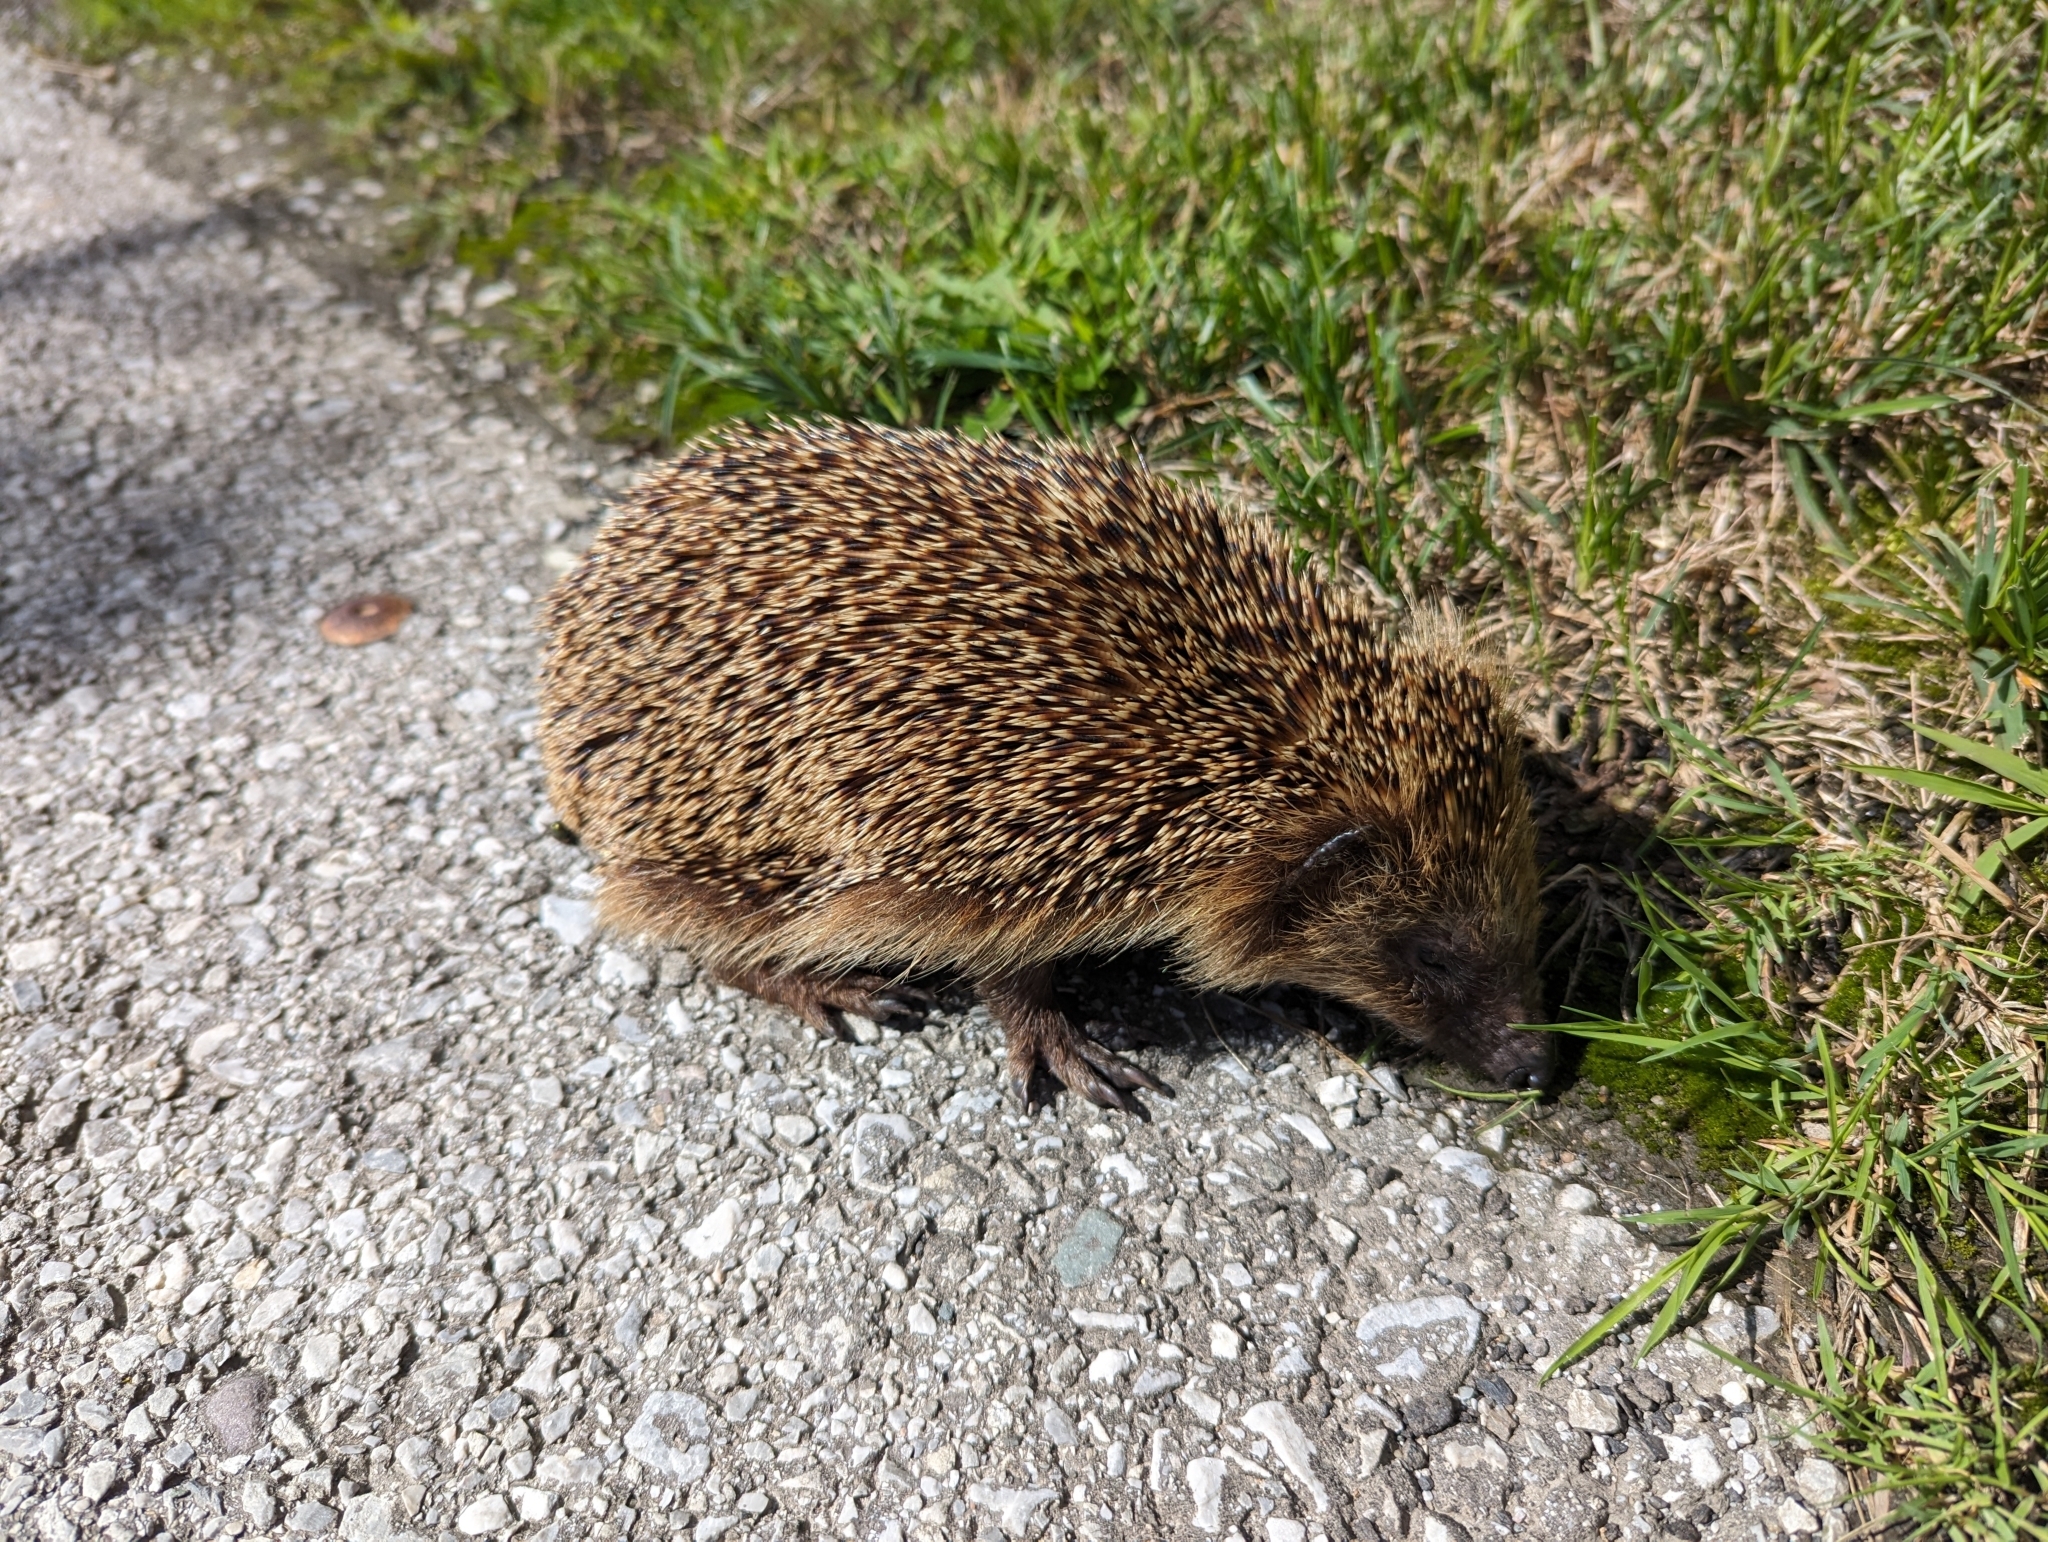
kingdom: Animalia
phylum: Chordata
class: Mammalia
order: Erinaceomorpha
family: Erinaceidae
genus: Erinaceus
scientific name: Erinaceus europaeus
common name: West european hedgehog
